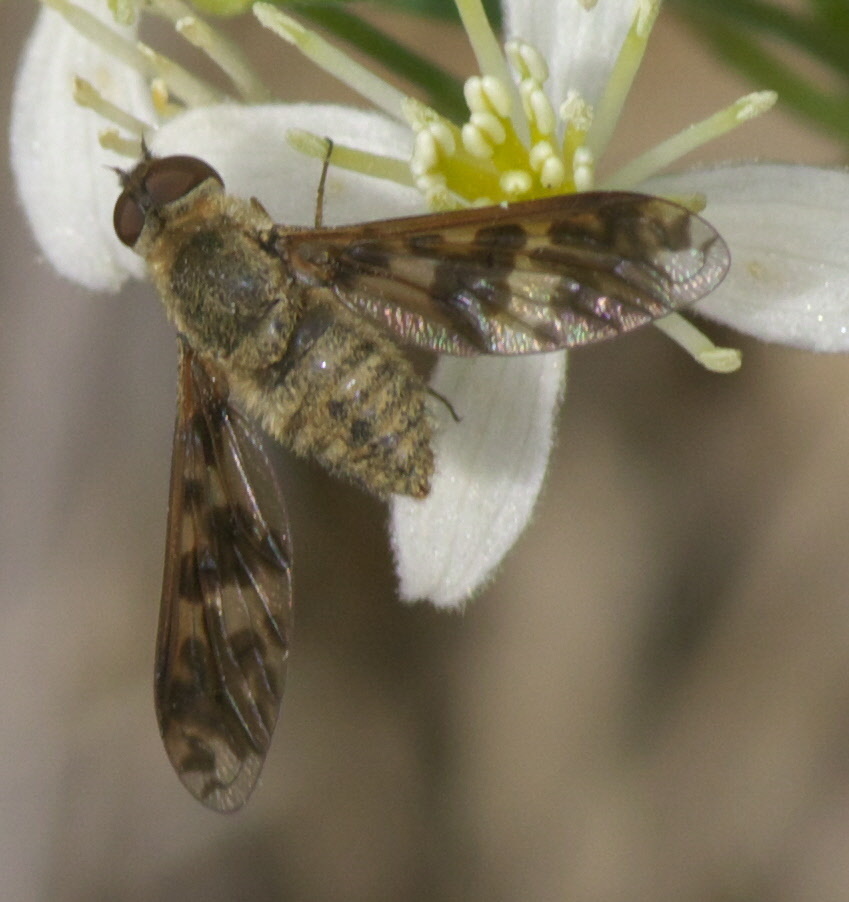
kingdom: Animalia
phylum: Arthropoda
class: Insecta
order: Diptera
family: Bombyliidae
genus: Dipalta
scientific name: Dipalta serpentina
